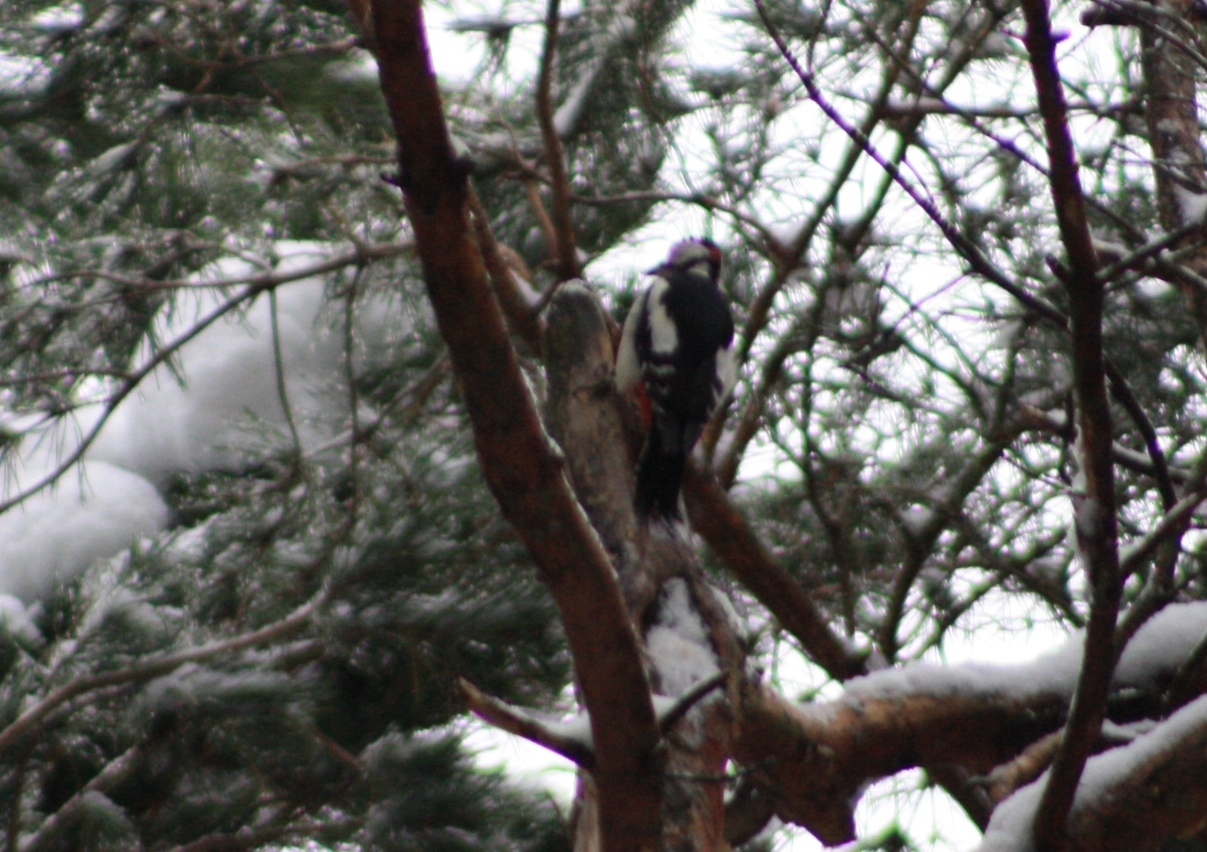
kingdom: Animalia
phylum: Chordata
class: Aves
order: Piciformes
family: Picidae
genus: Dendrocopos
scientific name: Dendrocopos major
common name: Great spotted woodpecker
